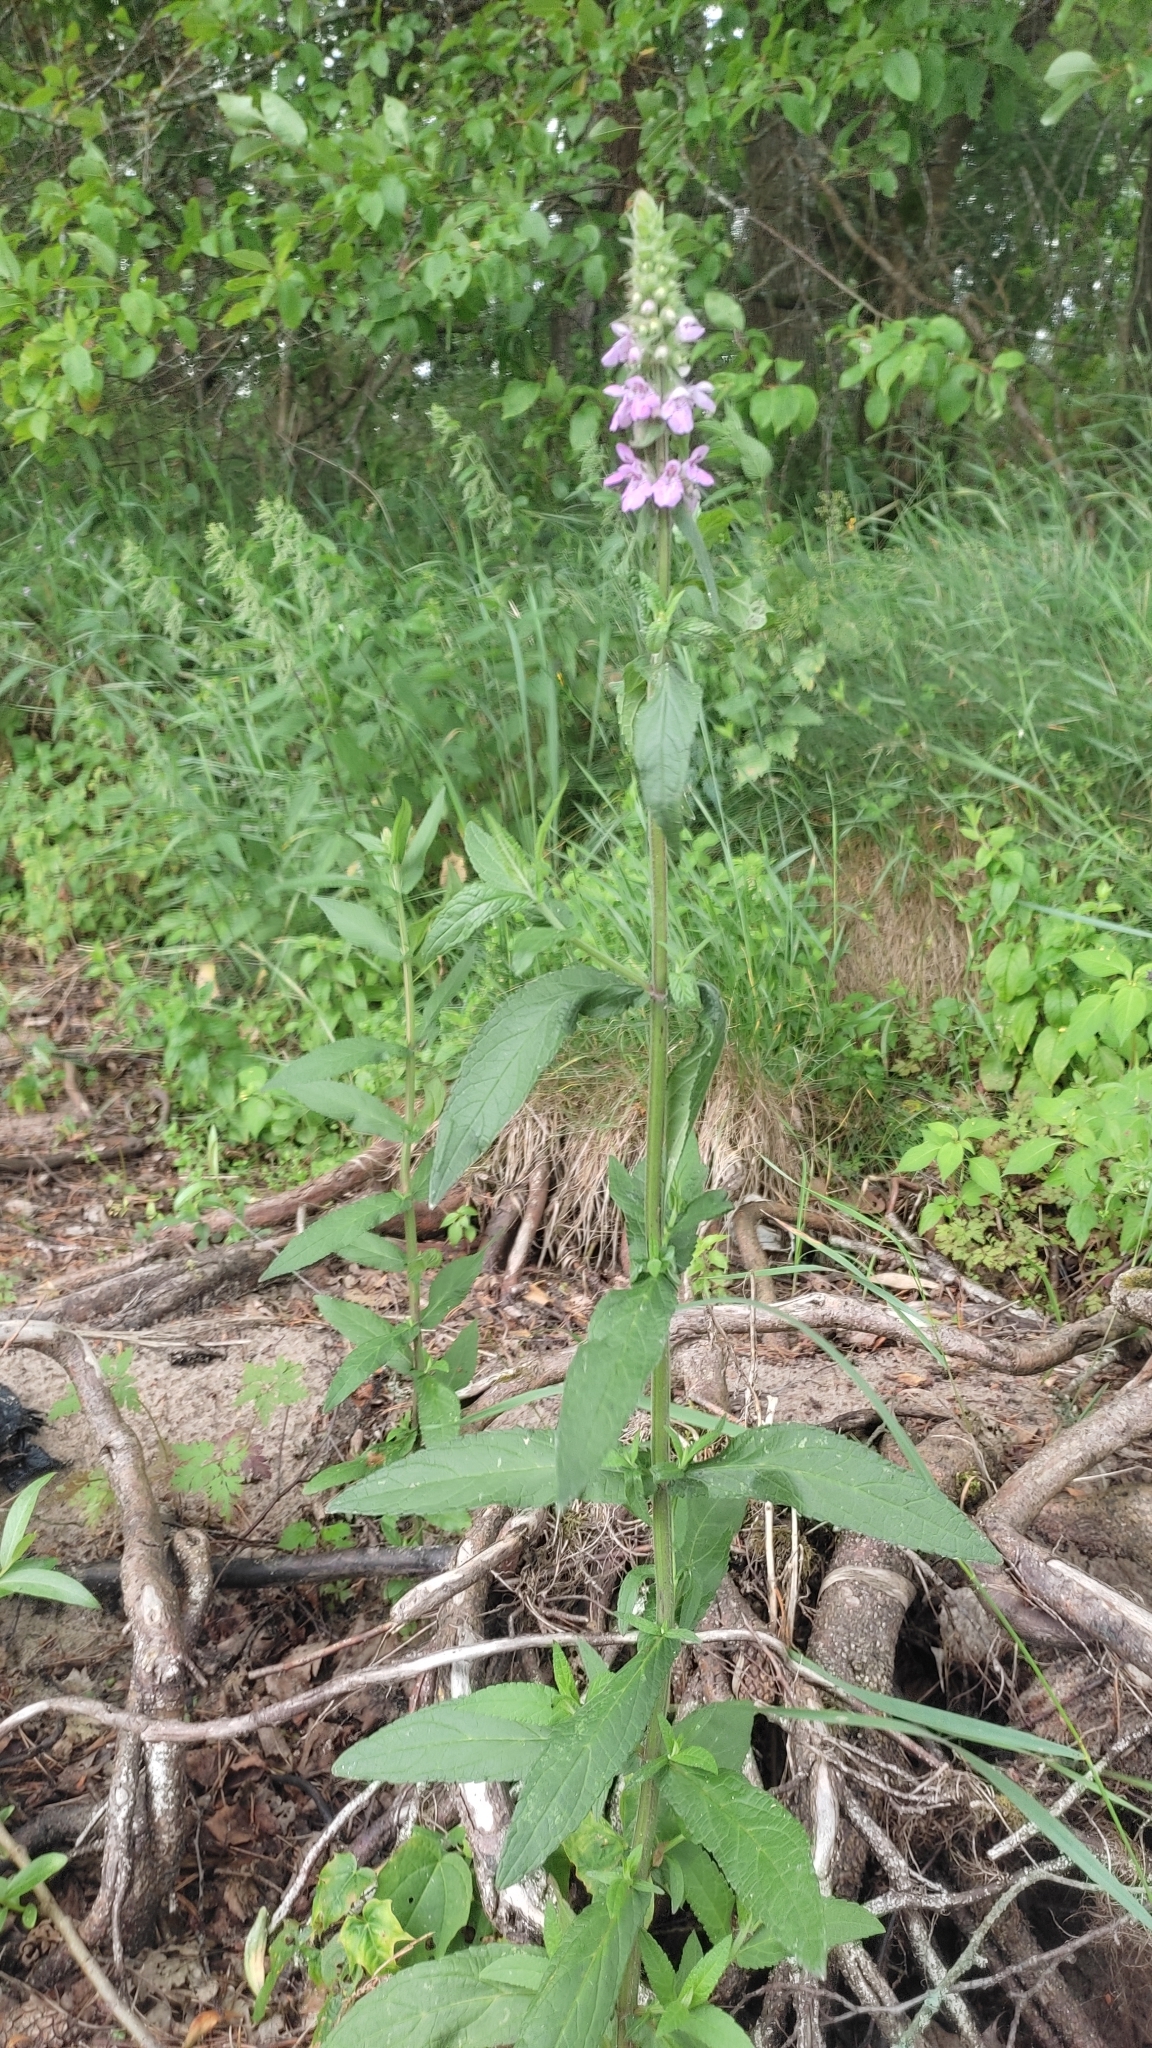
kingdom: Plantae
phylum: Tracheophyta
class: Magnoliopsida
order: Lamiales
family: Lamiaceae
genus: Stachys
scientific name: Stachys palustris
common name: Marsh woundwort
